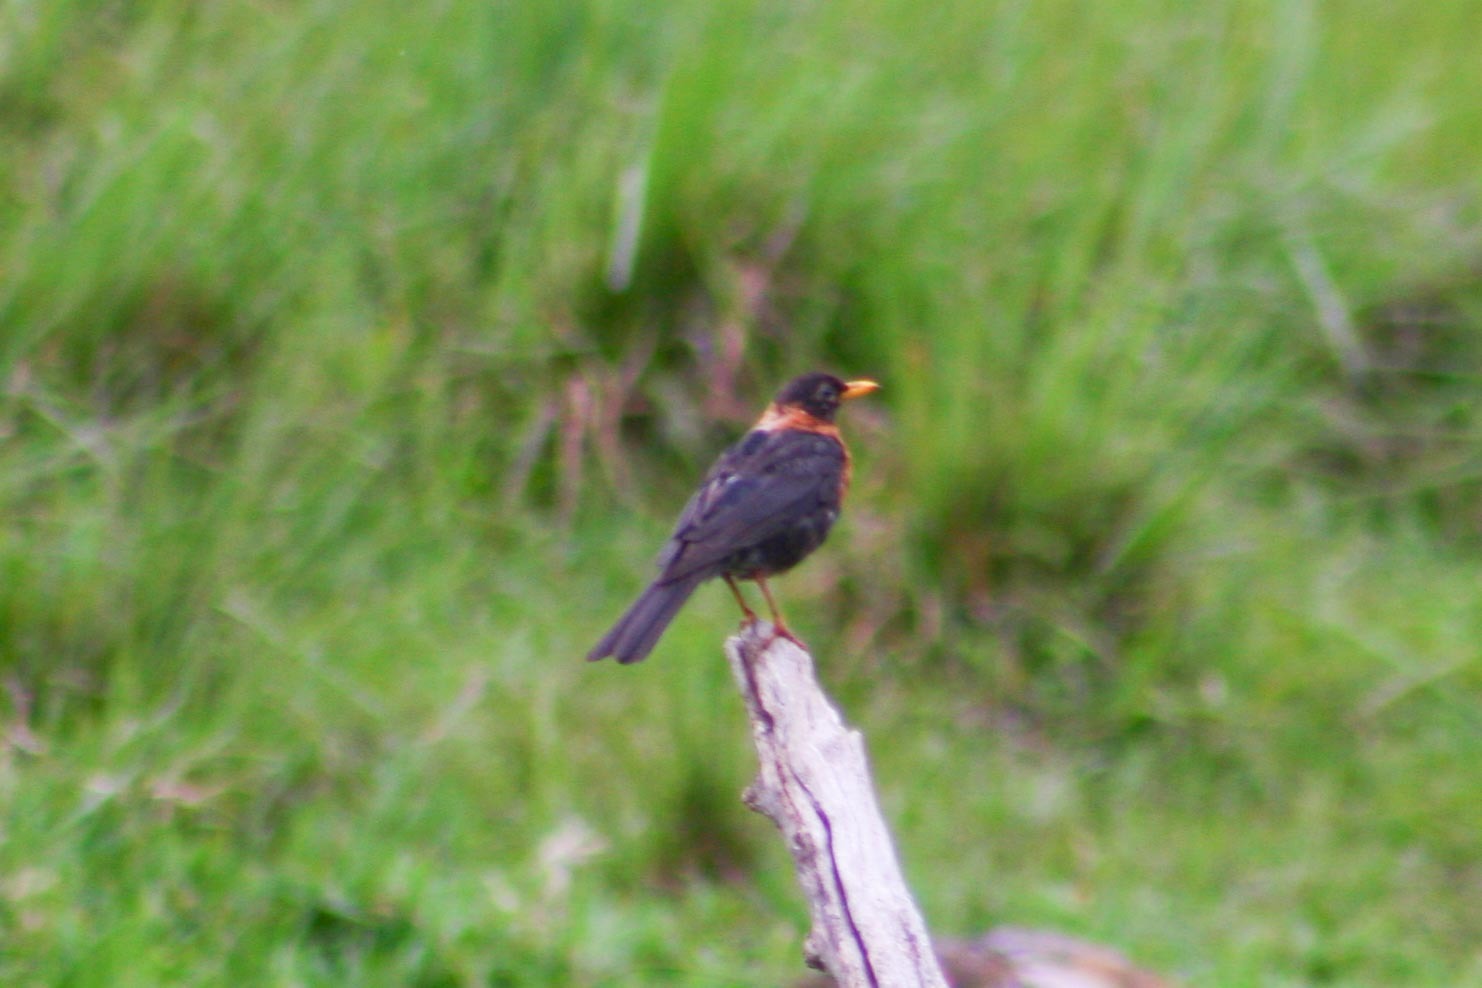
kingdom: Animalia
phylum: Chordata
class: Aves
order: Passeriformes
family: Turdidae
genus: Turdus
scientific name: Turdus rufitorques
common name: Rufous-collared thrush
